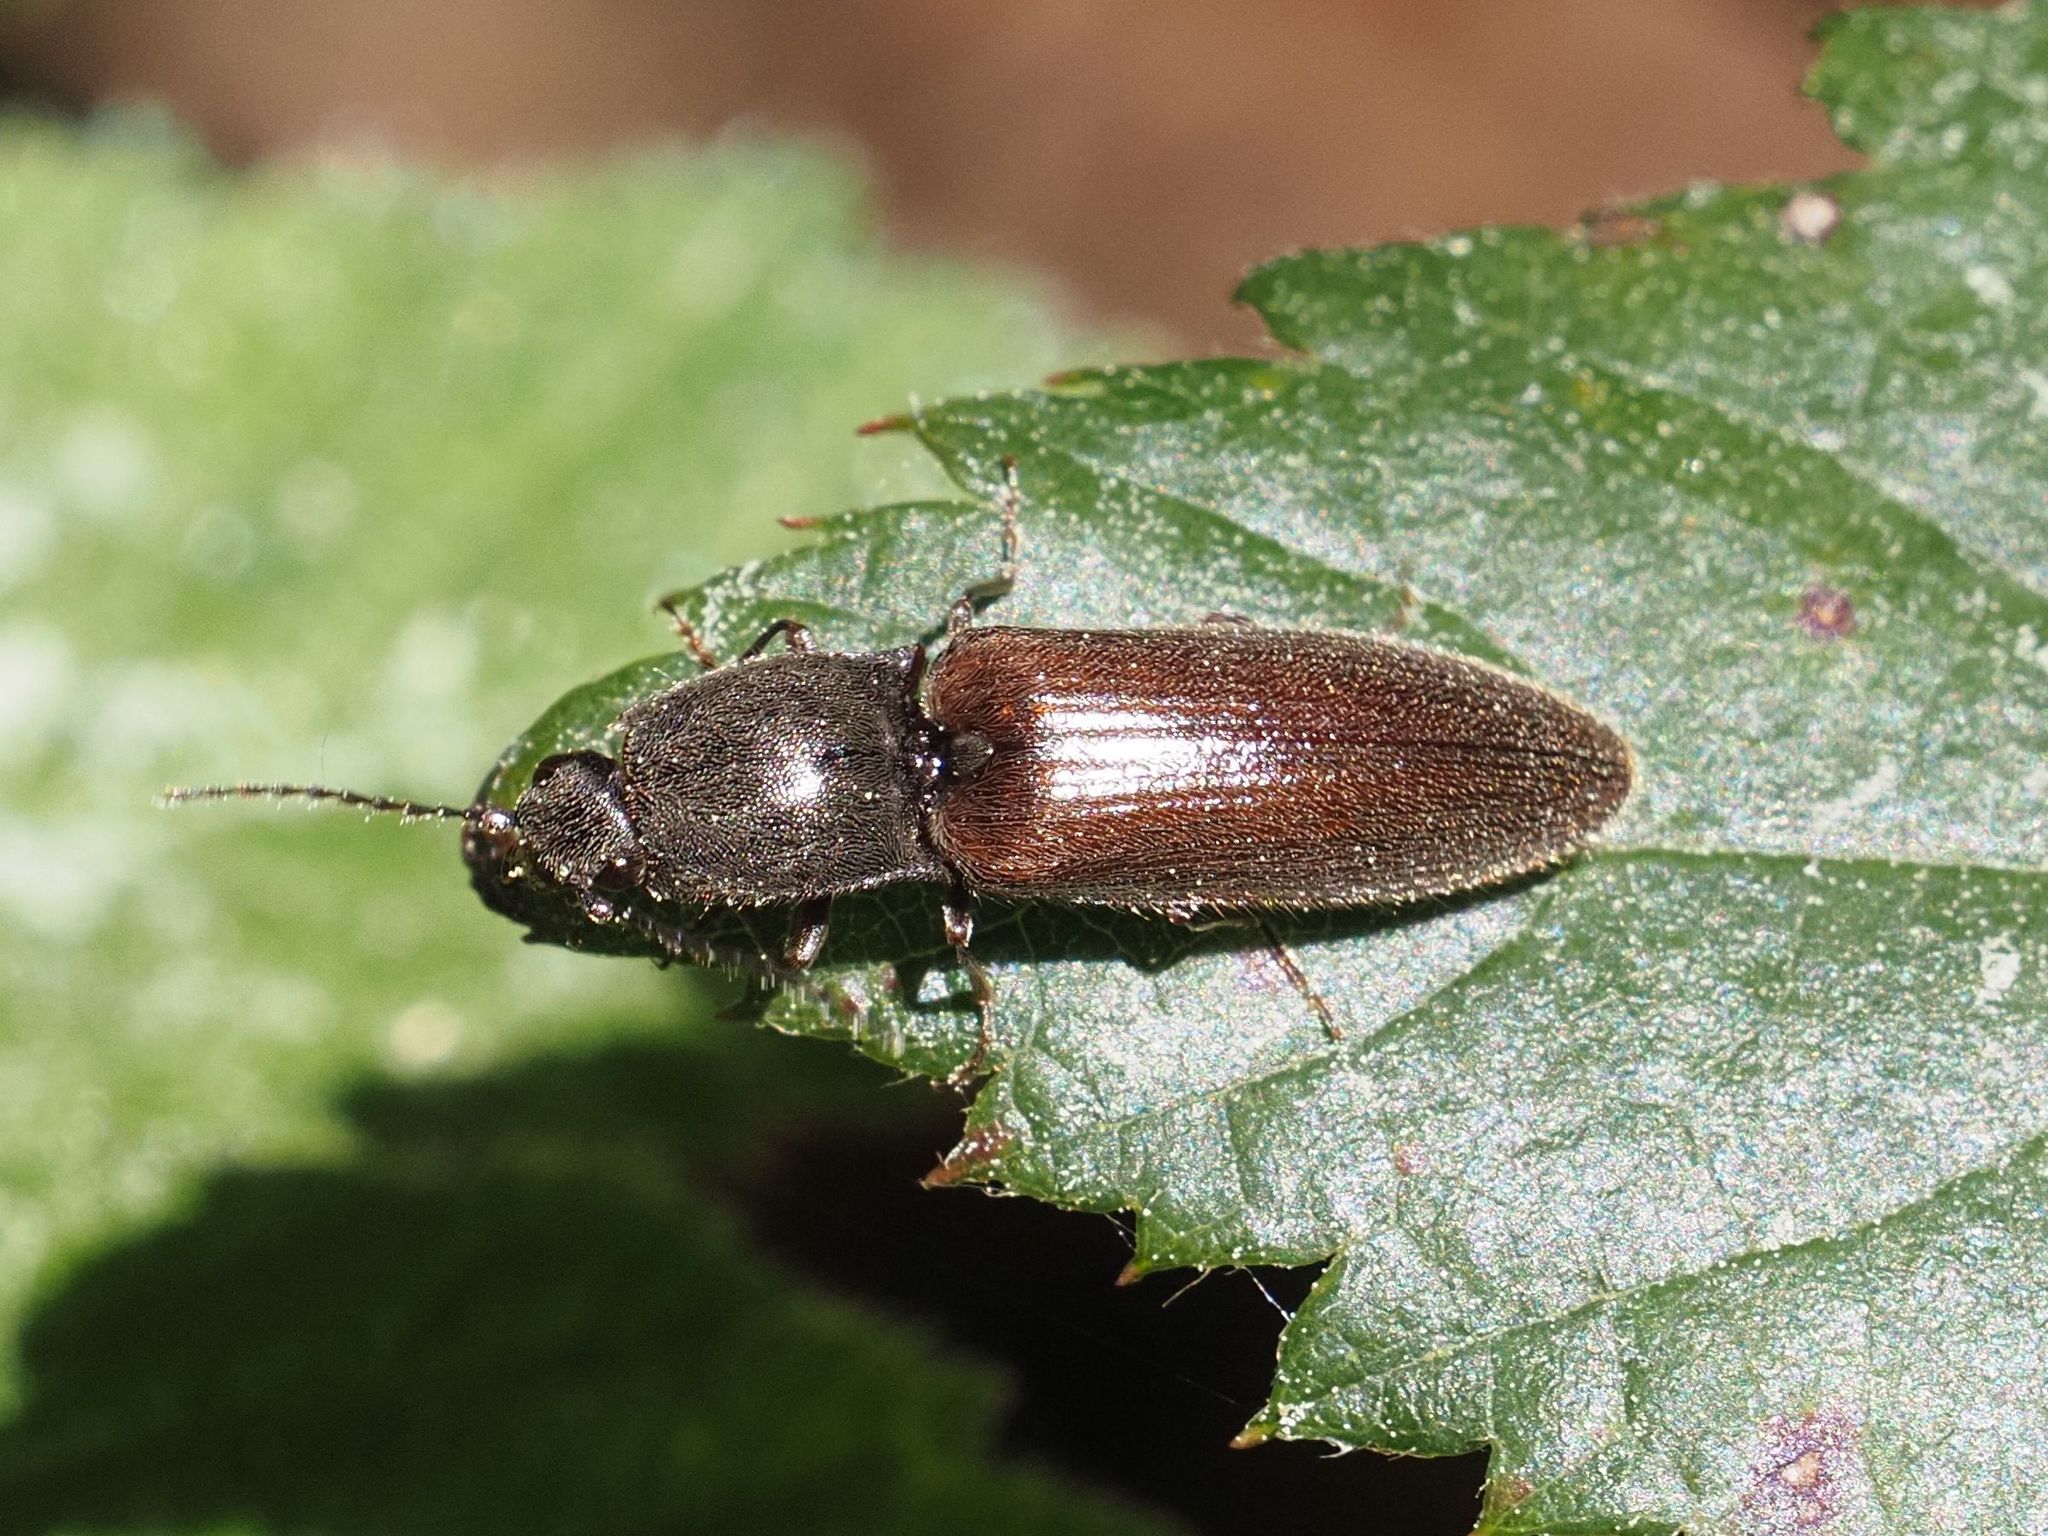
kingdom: Animalia
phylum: Arthropoda
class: Insecta
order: Coleoptera
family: Elateridae
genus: Athous
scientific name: Athous haemorrhoidalis
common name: Red-brown click beetle
